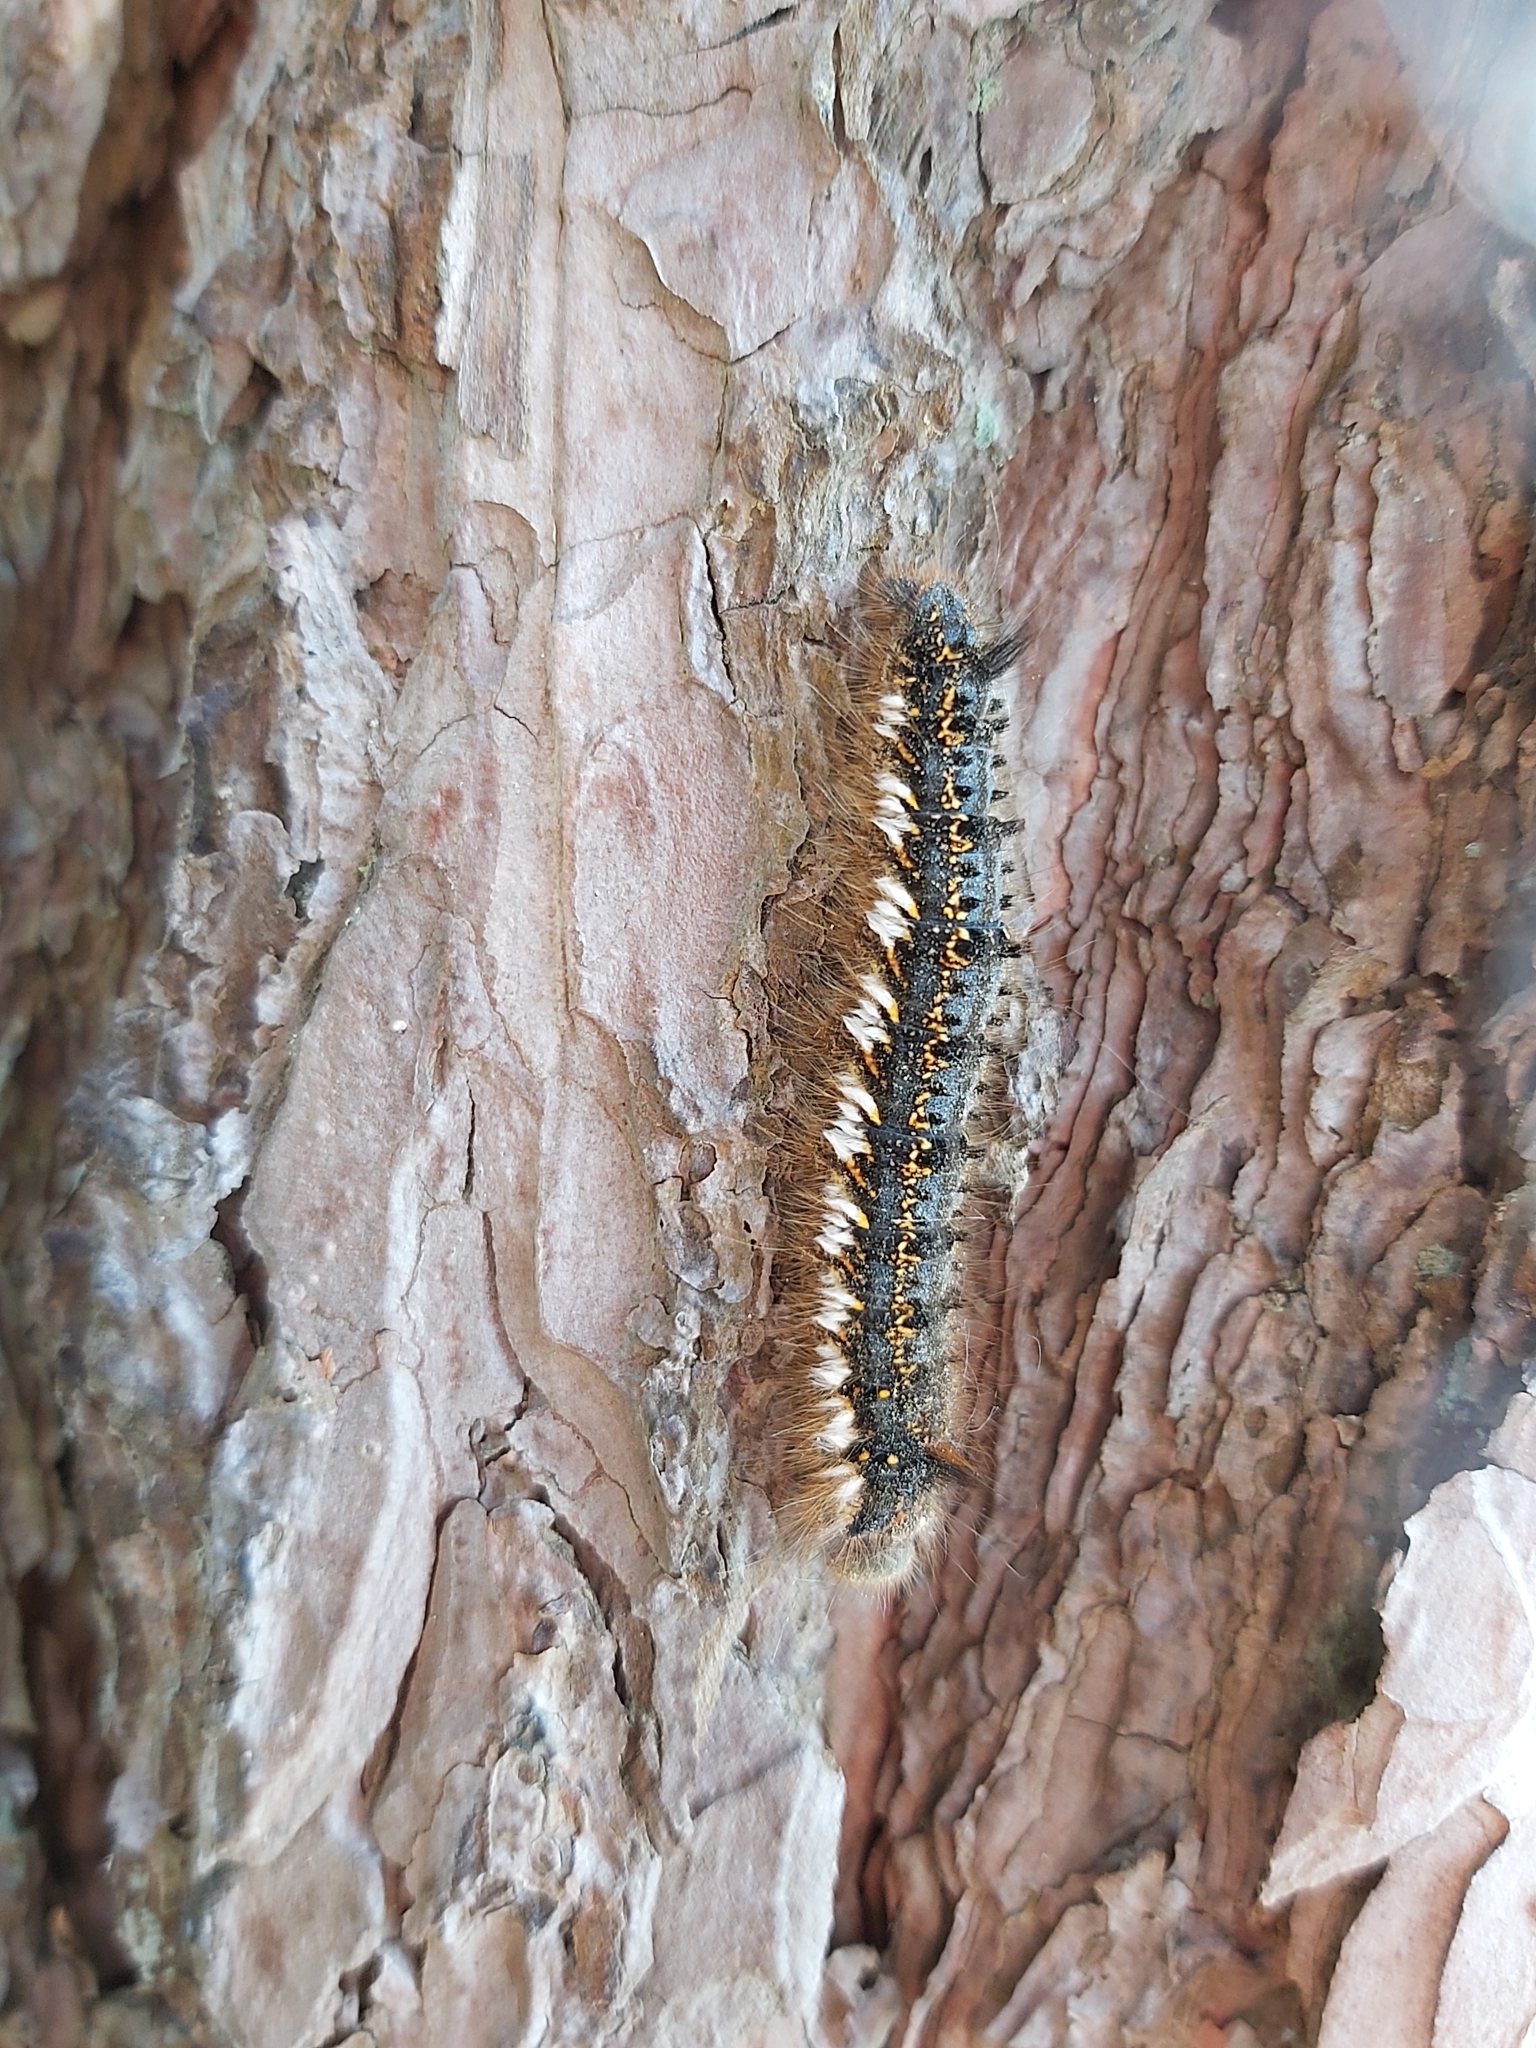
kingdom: Animalia
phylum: Arthropoda
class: Insecta
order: Lepidoptera
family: Lasiocampidae
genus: Euthrix
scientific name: Euthrix potatoria
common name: Drinker
